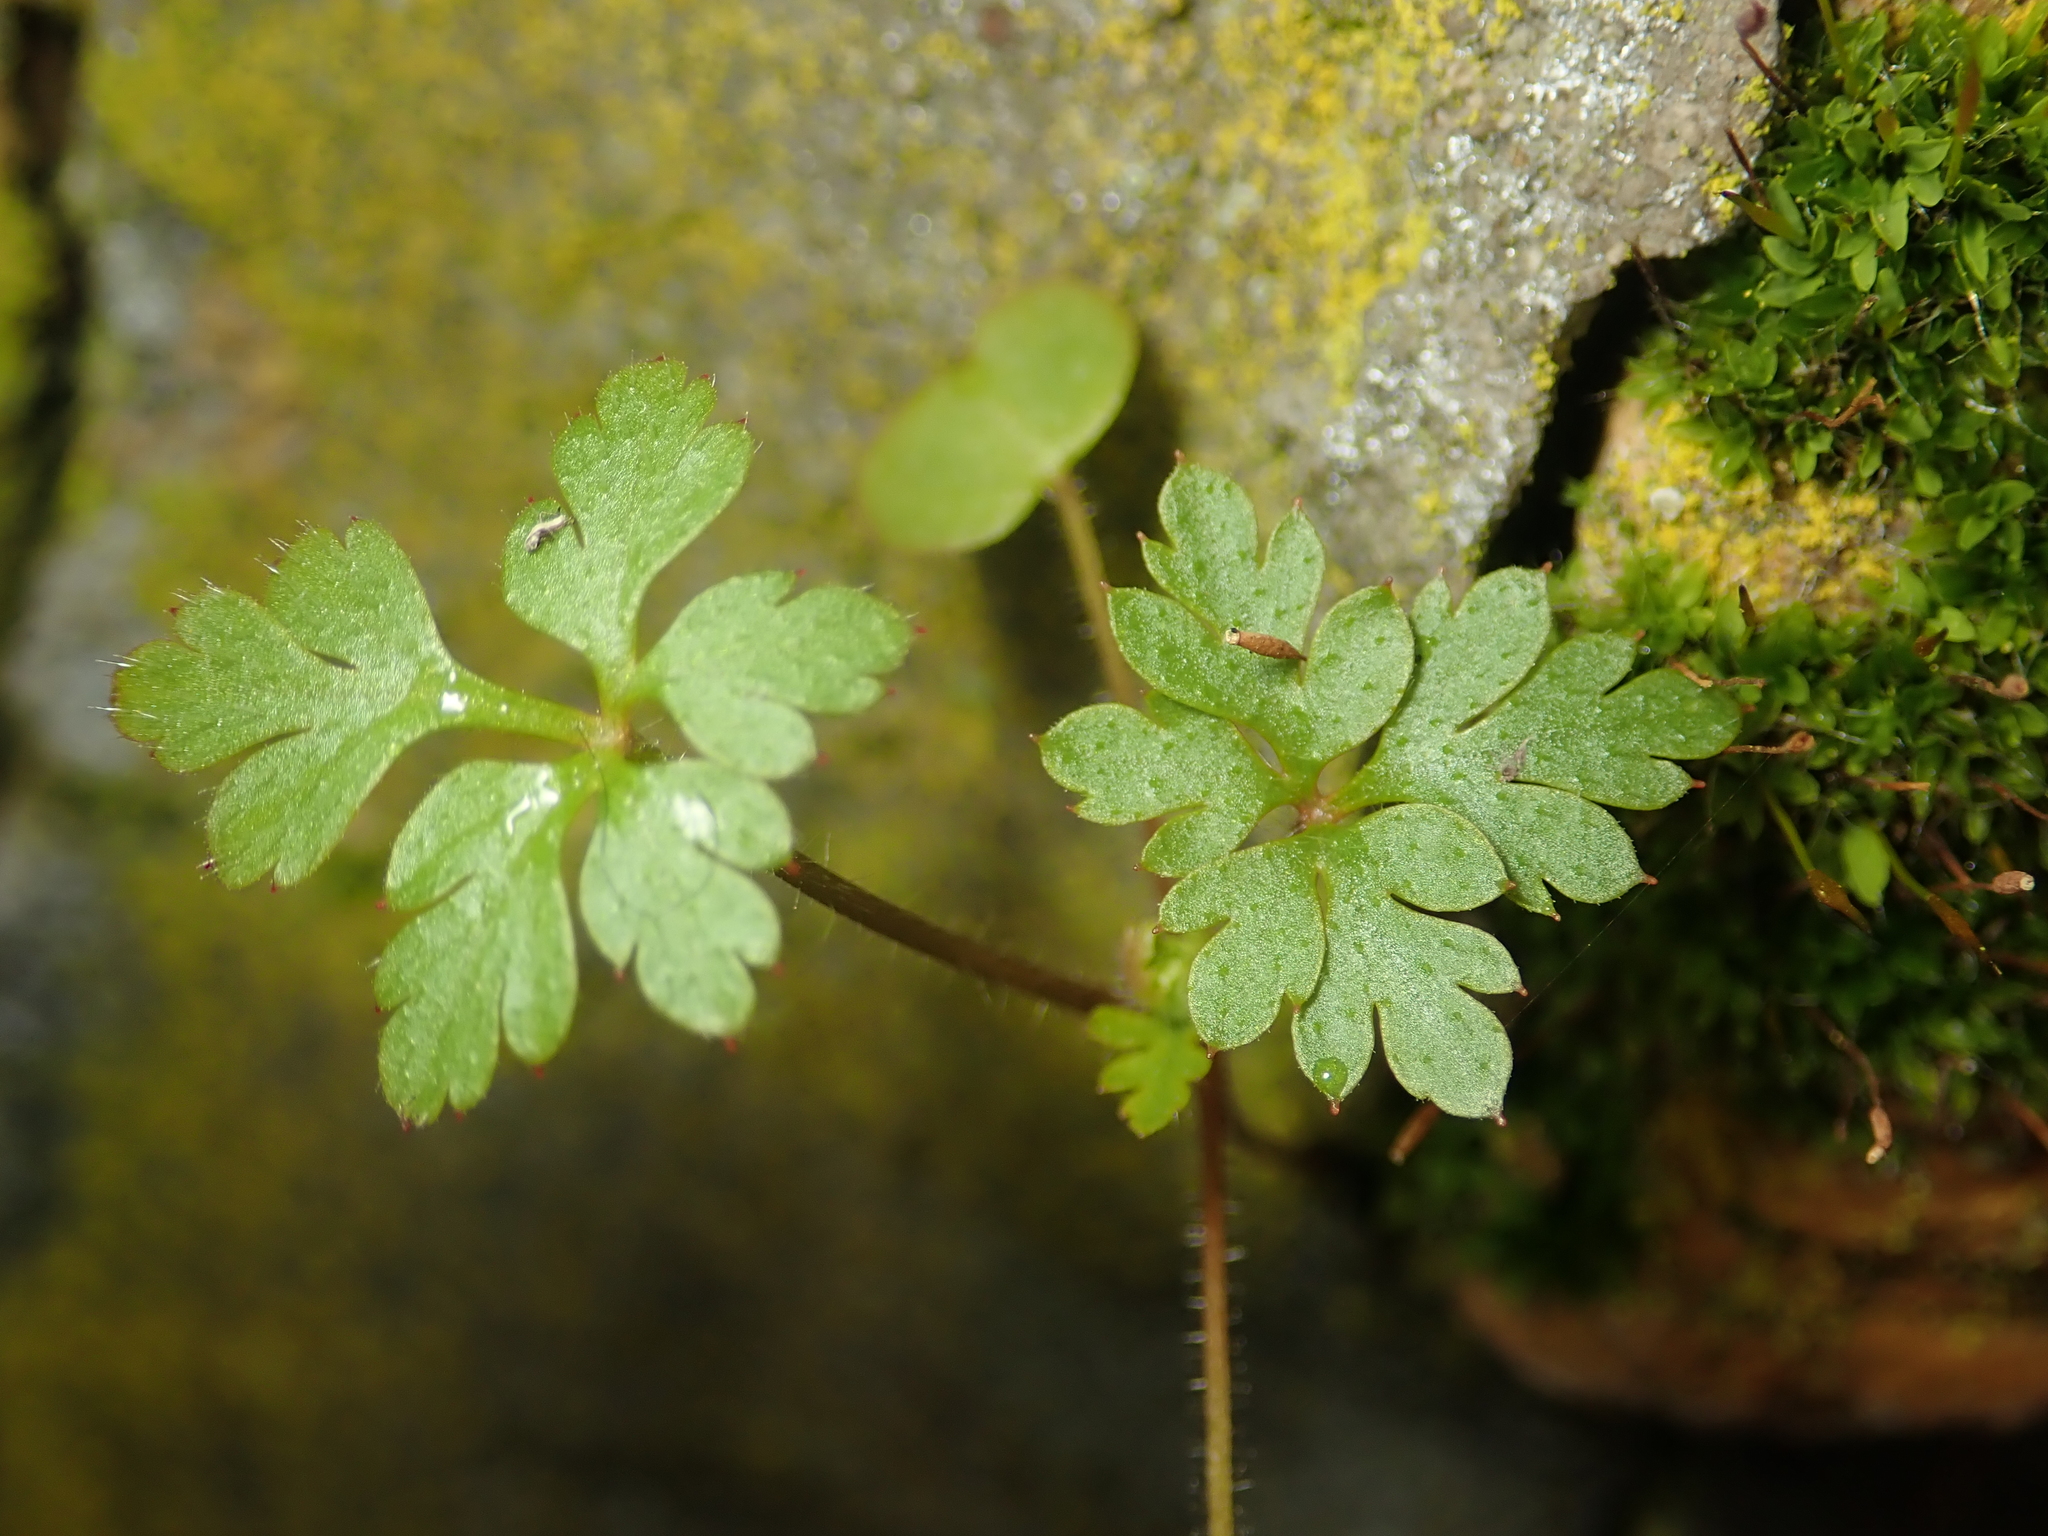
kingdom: Plantae
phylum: Tracheophyta
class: Magnoliopsida
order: Geraniales
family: Geraniaceae
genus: Geranium
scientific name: Geranium robertianum
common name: Herb-robert
